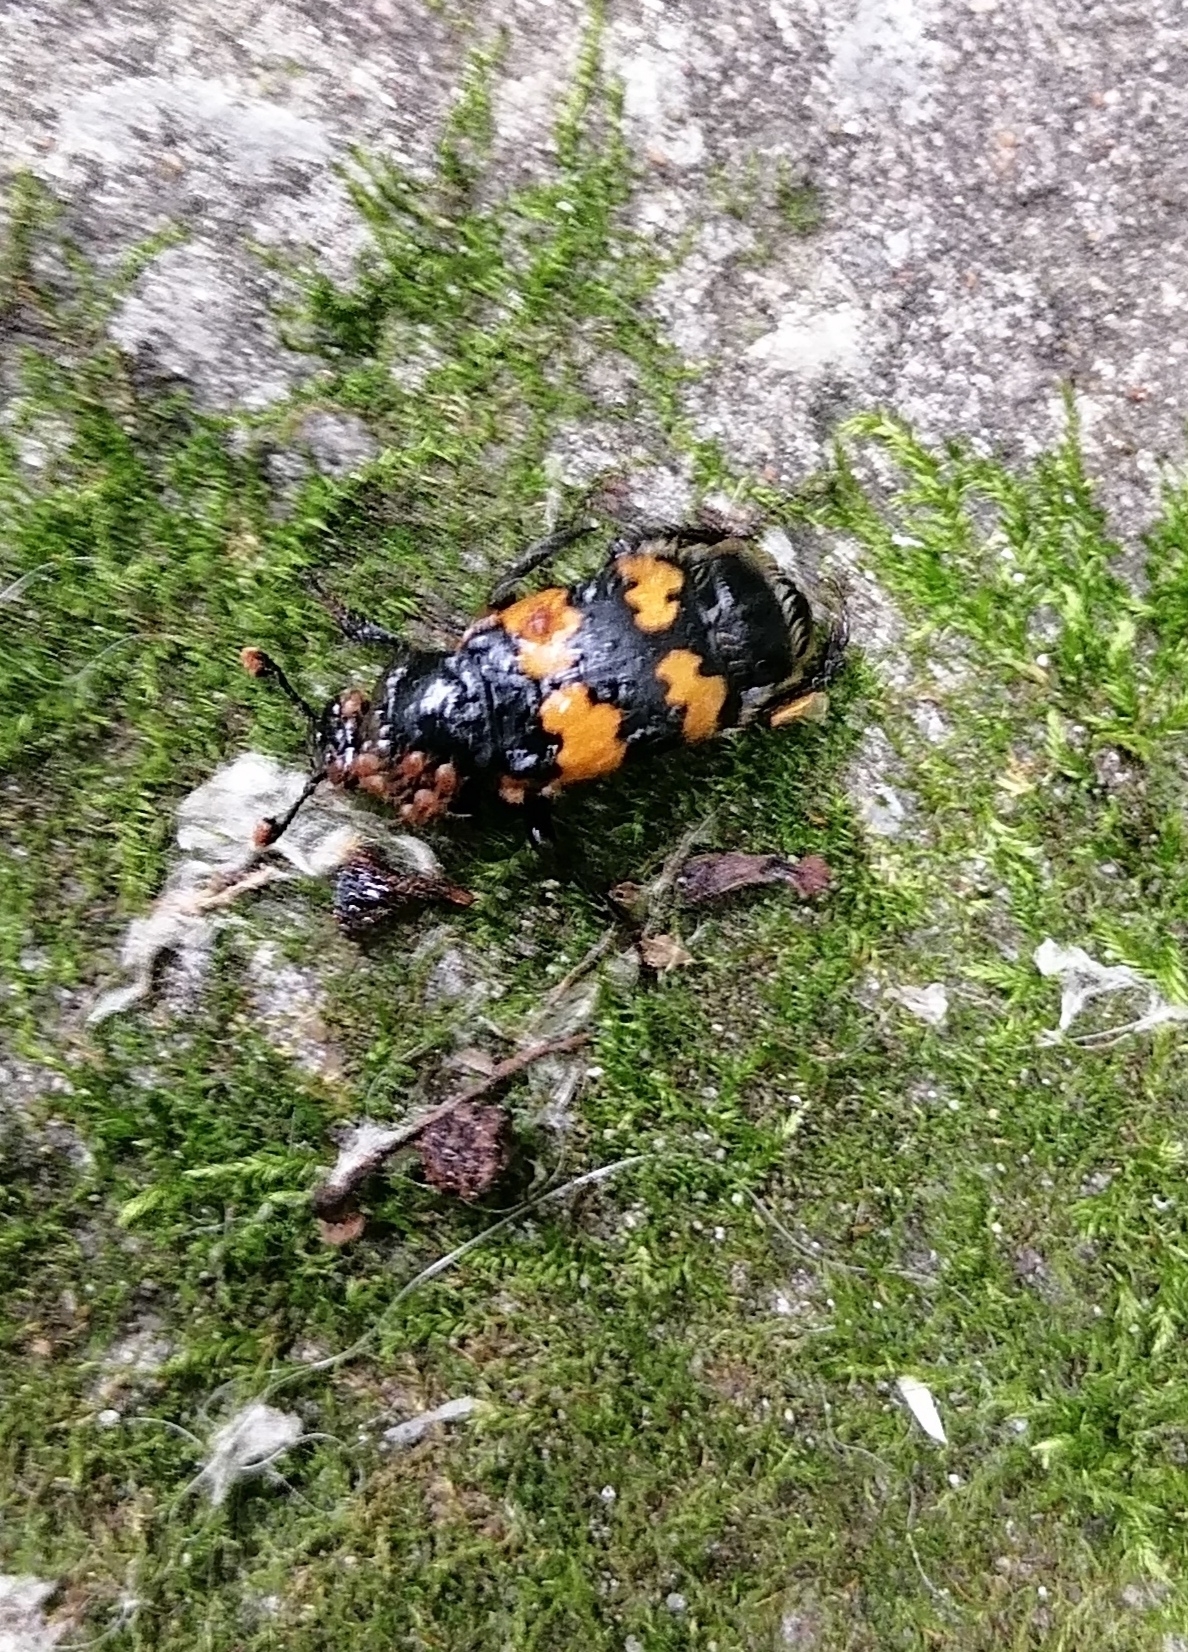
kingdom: Animalia
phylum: Arthropoda
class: Insecta
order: Coleoptera
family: Staphylinidae
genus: Nicrophorus
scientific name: Nicrophorus vespillo
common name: Common burying beetle
